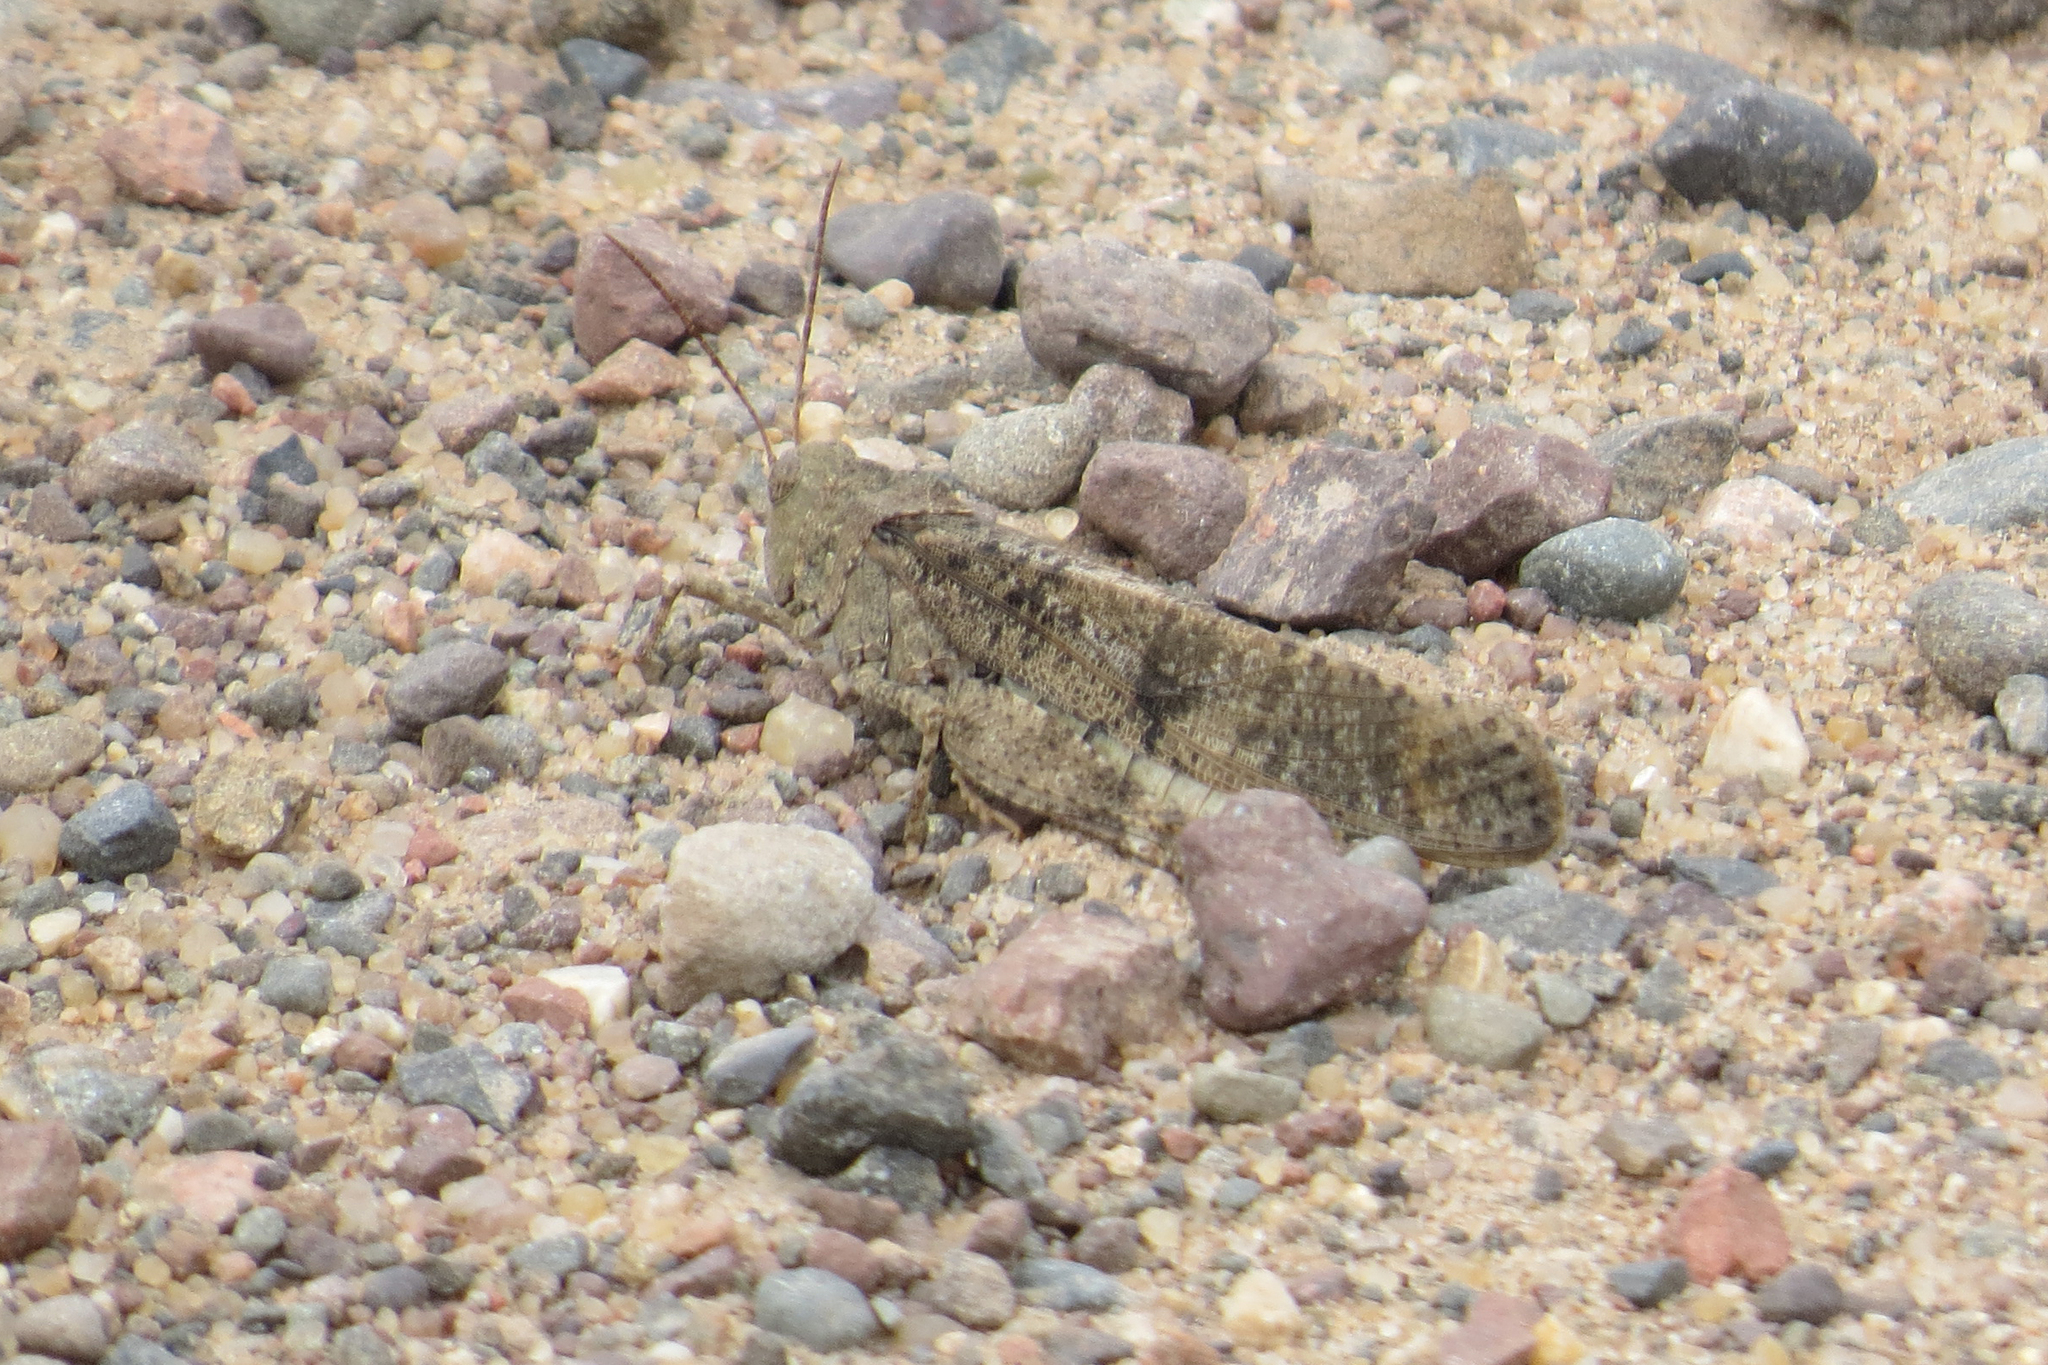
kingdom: Animalia
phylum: Arthropoda
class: Insecta
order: Orthoptera
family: Acrididae
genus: Dissosteira
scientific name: Dissosteira carolina
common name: Carolina grasshopper
